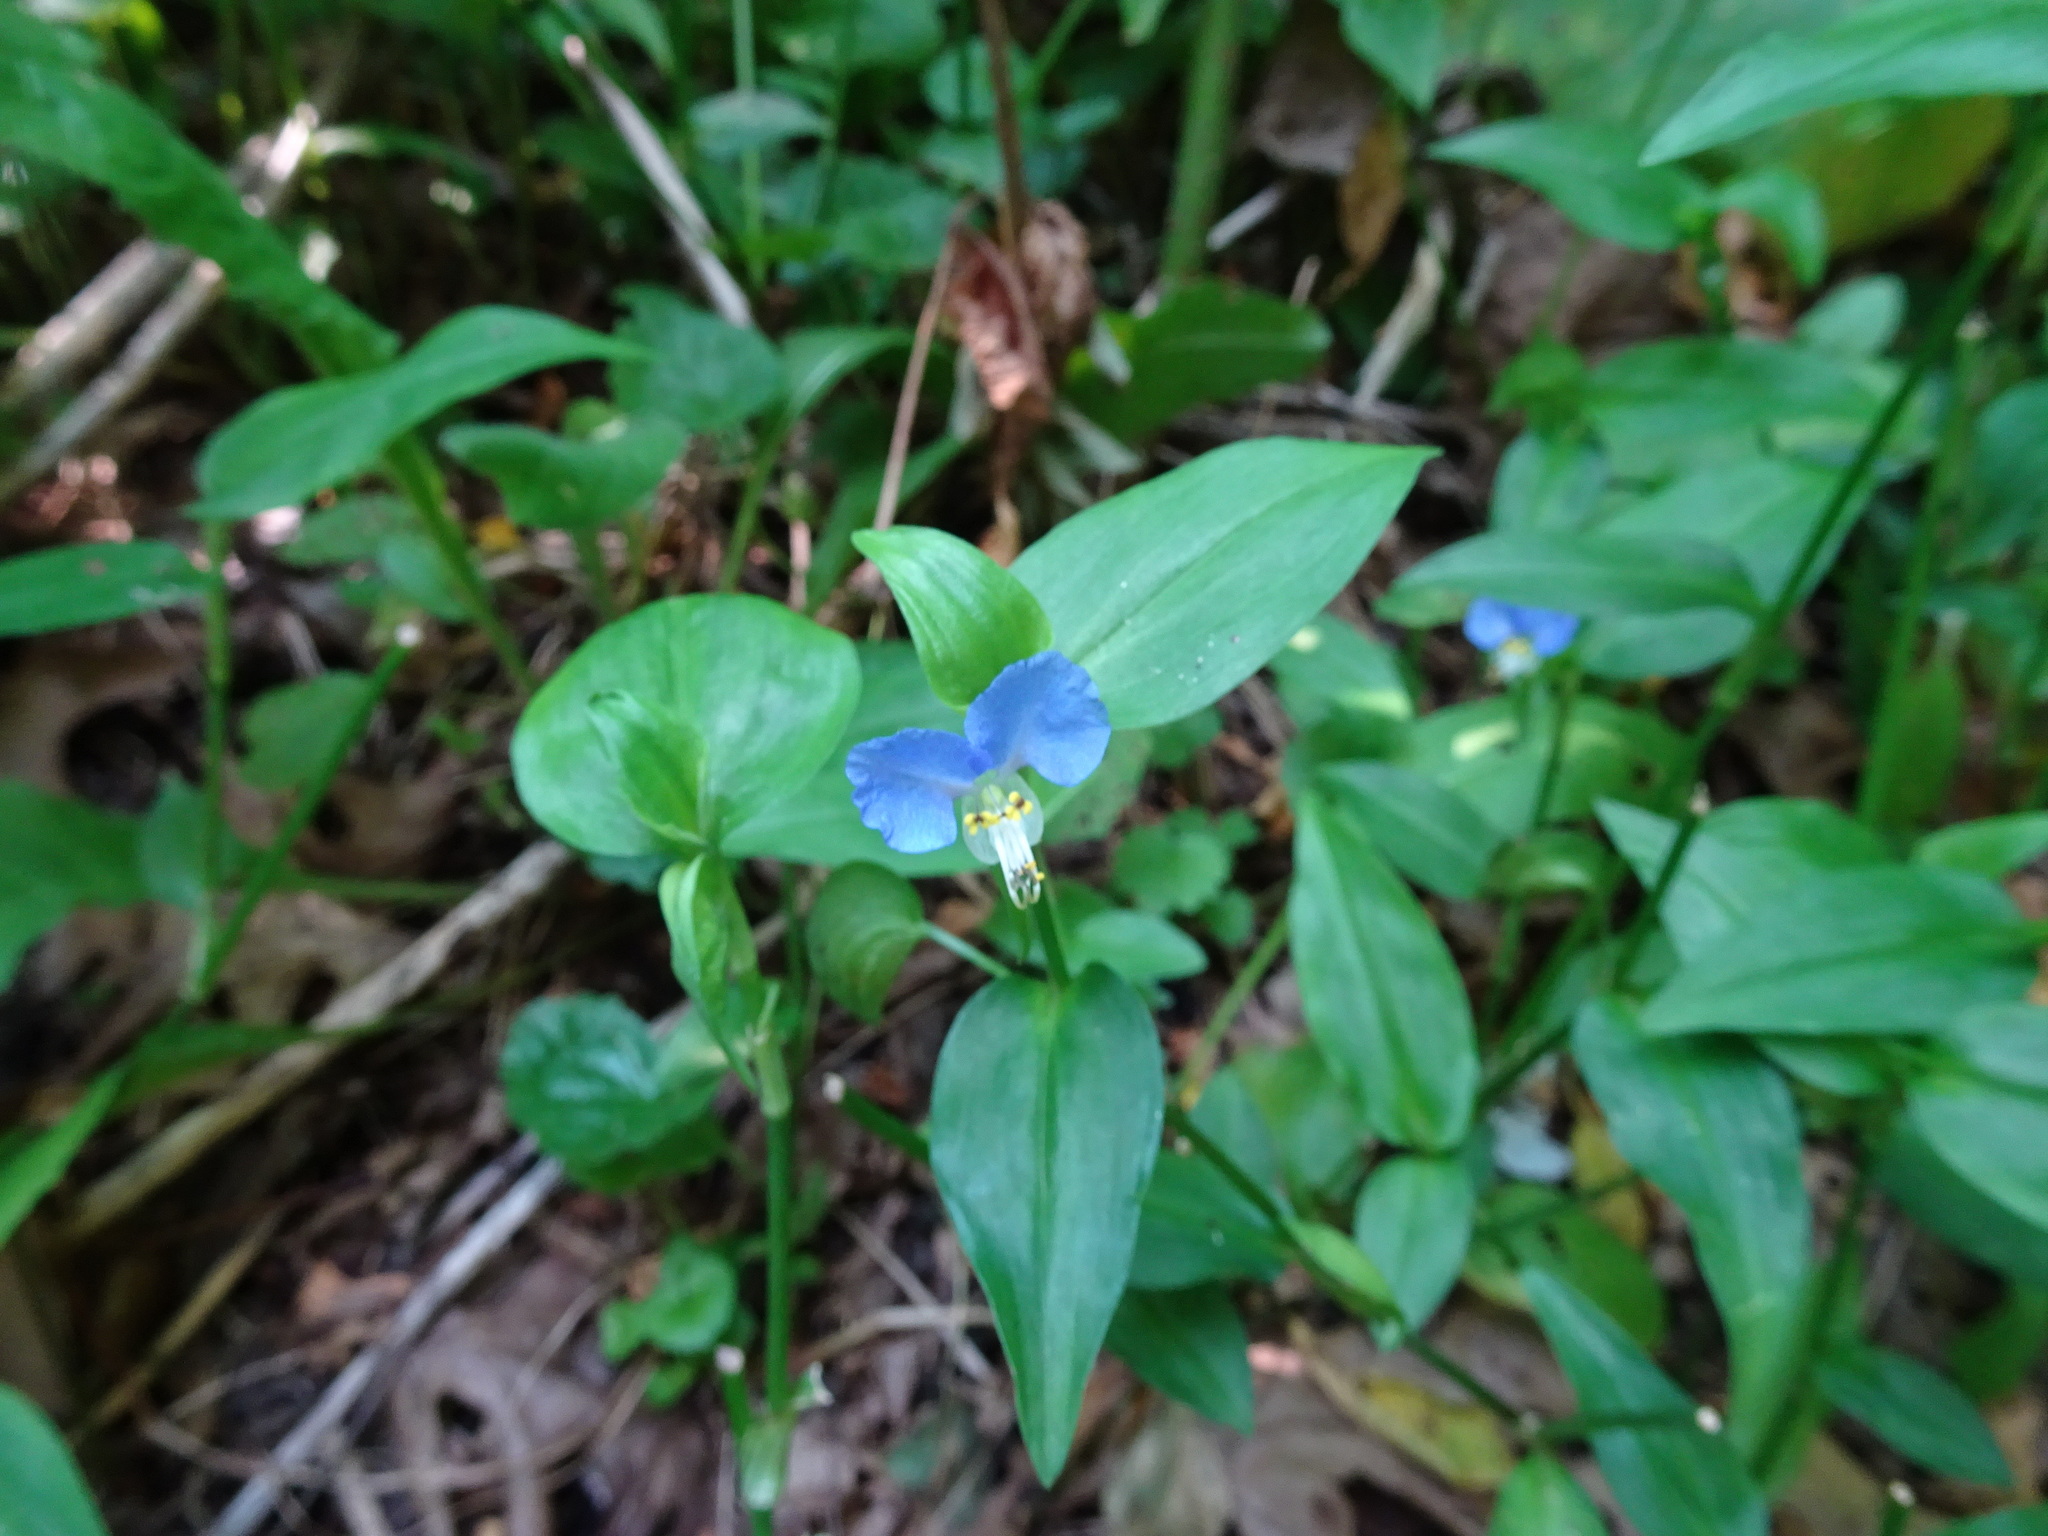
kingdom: Plantae
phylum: Tracheophyta
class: Liliopsida
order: Commelinales
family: Commelinaceae
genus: Commelina
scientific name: Commelina communis
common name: Asiatic dayflower
